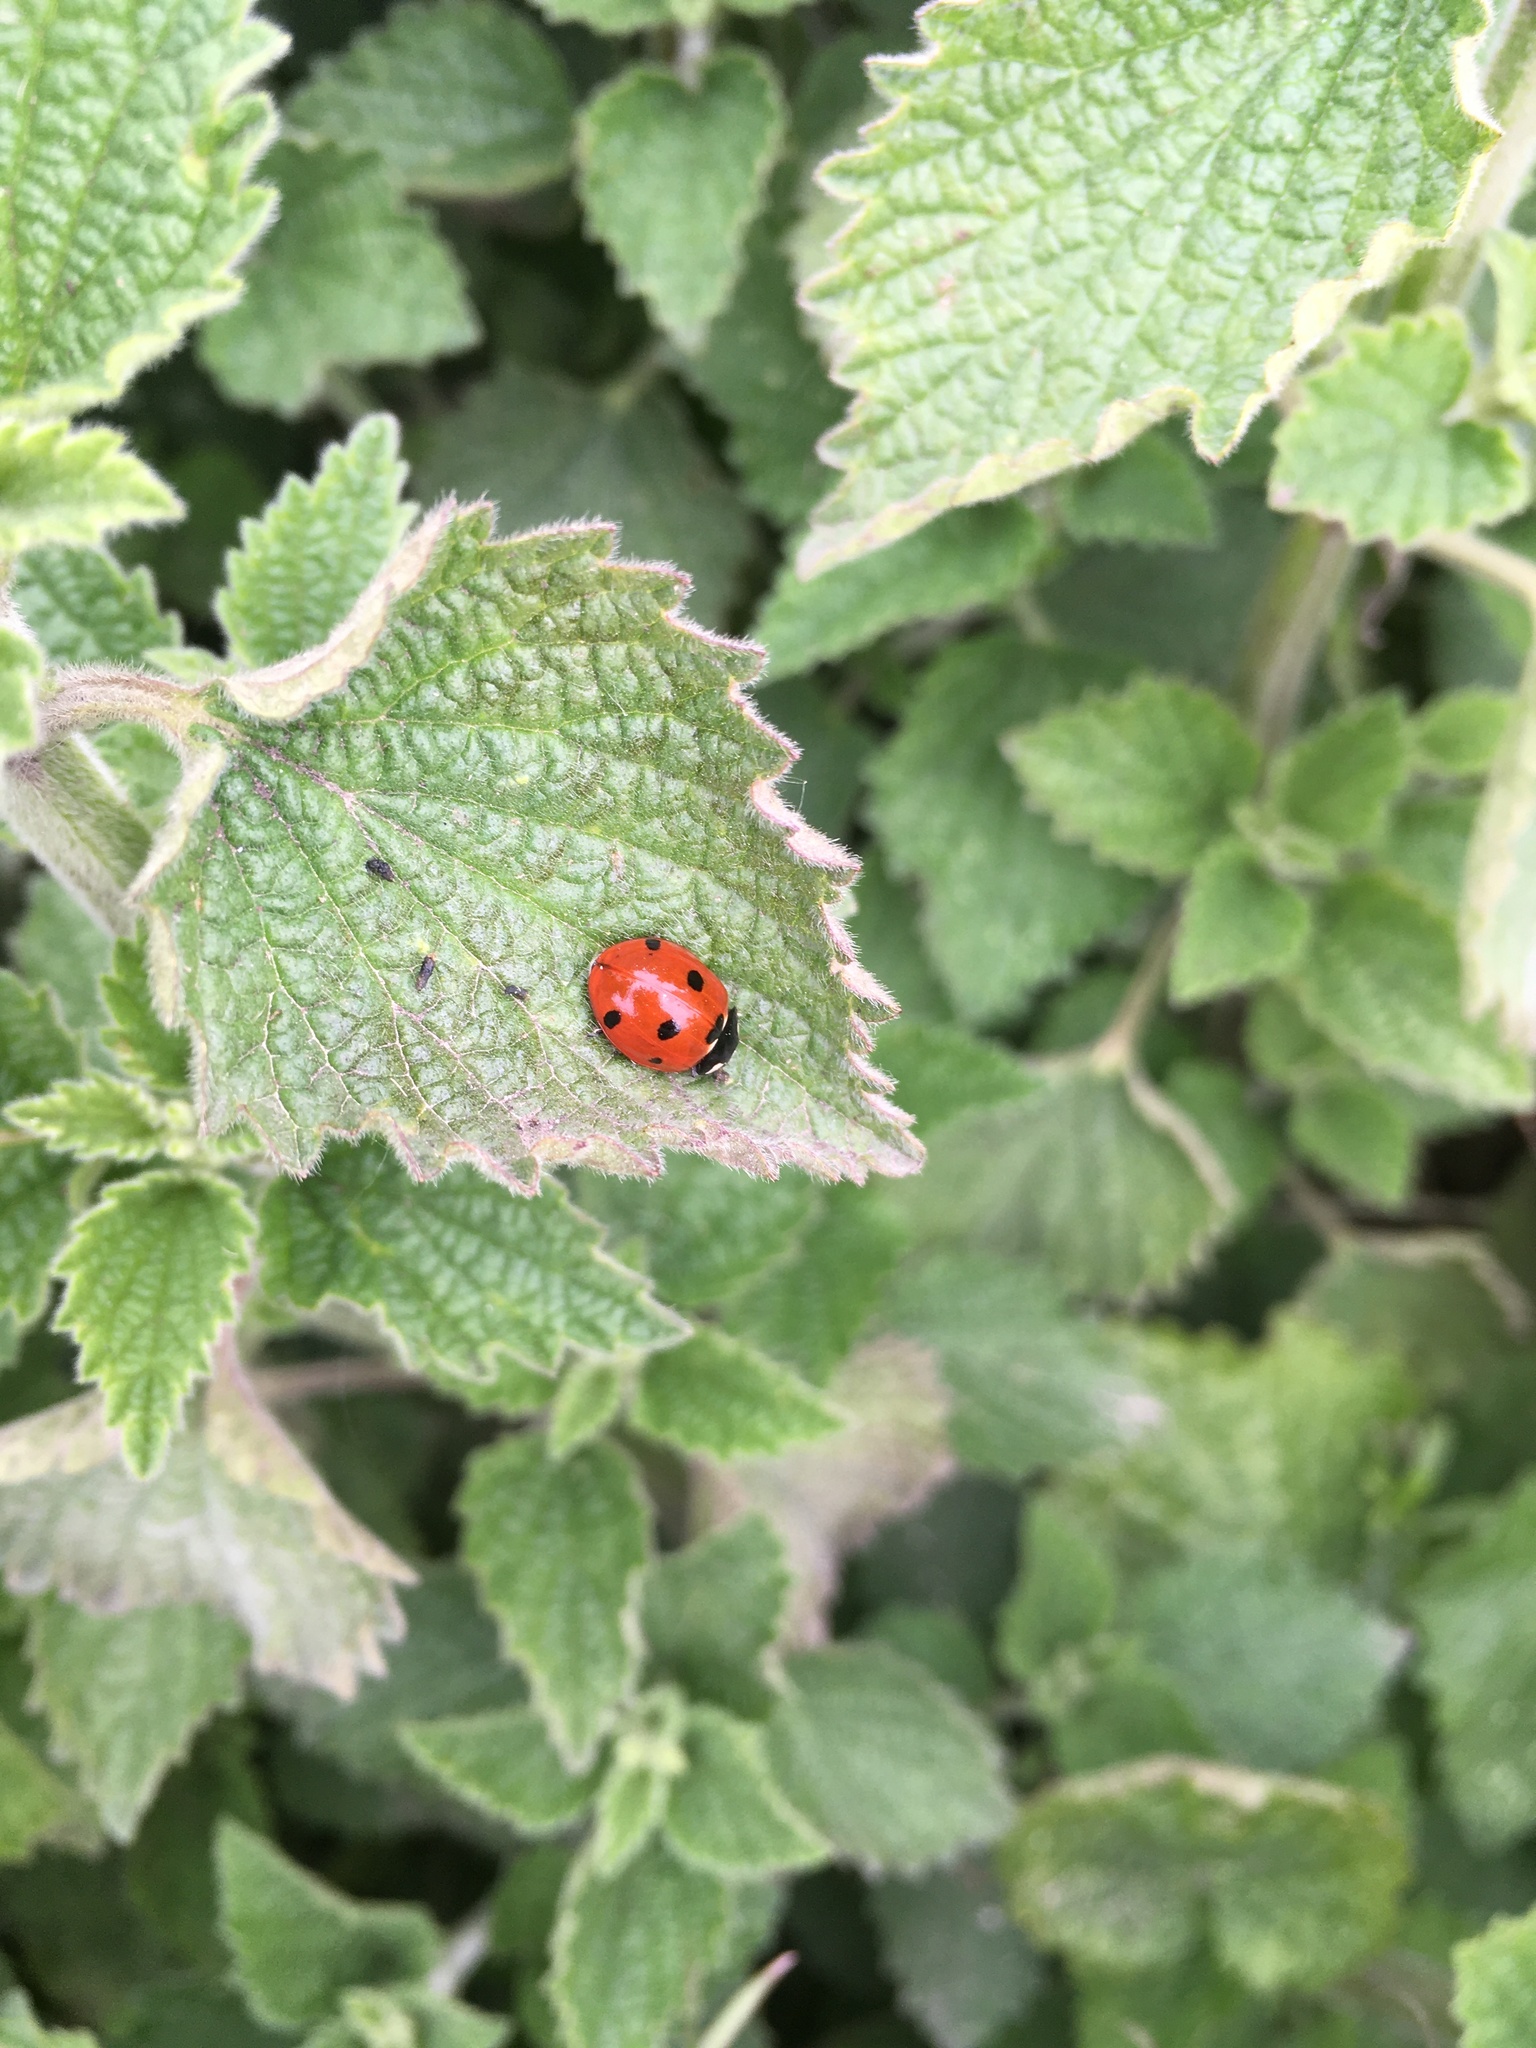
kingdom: Animalia
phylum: Arthropoda
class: Insecta
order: Coleoptera
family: Coccinellidae
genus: Coccinella
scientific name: Coccinella septempunctata
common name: Sevenspotted lady beetle
